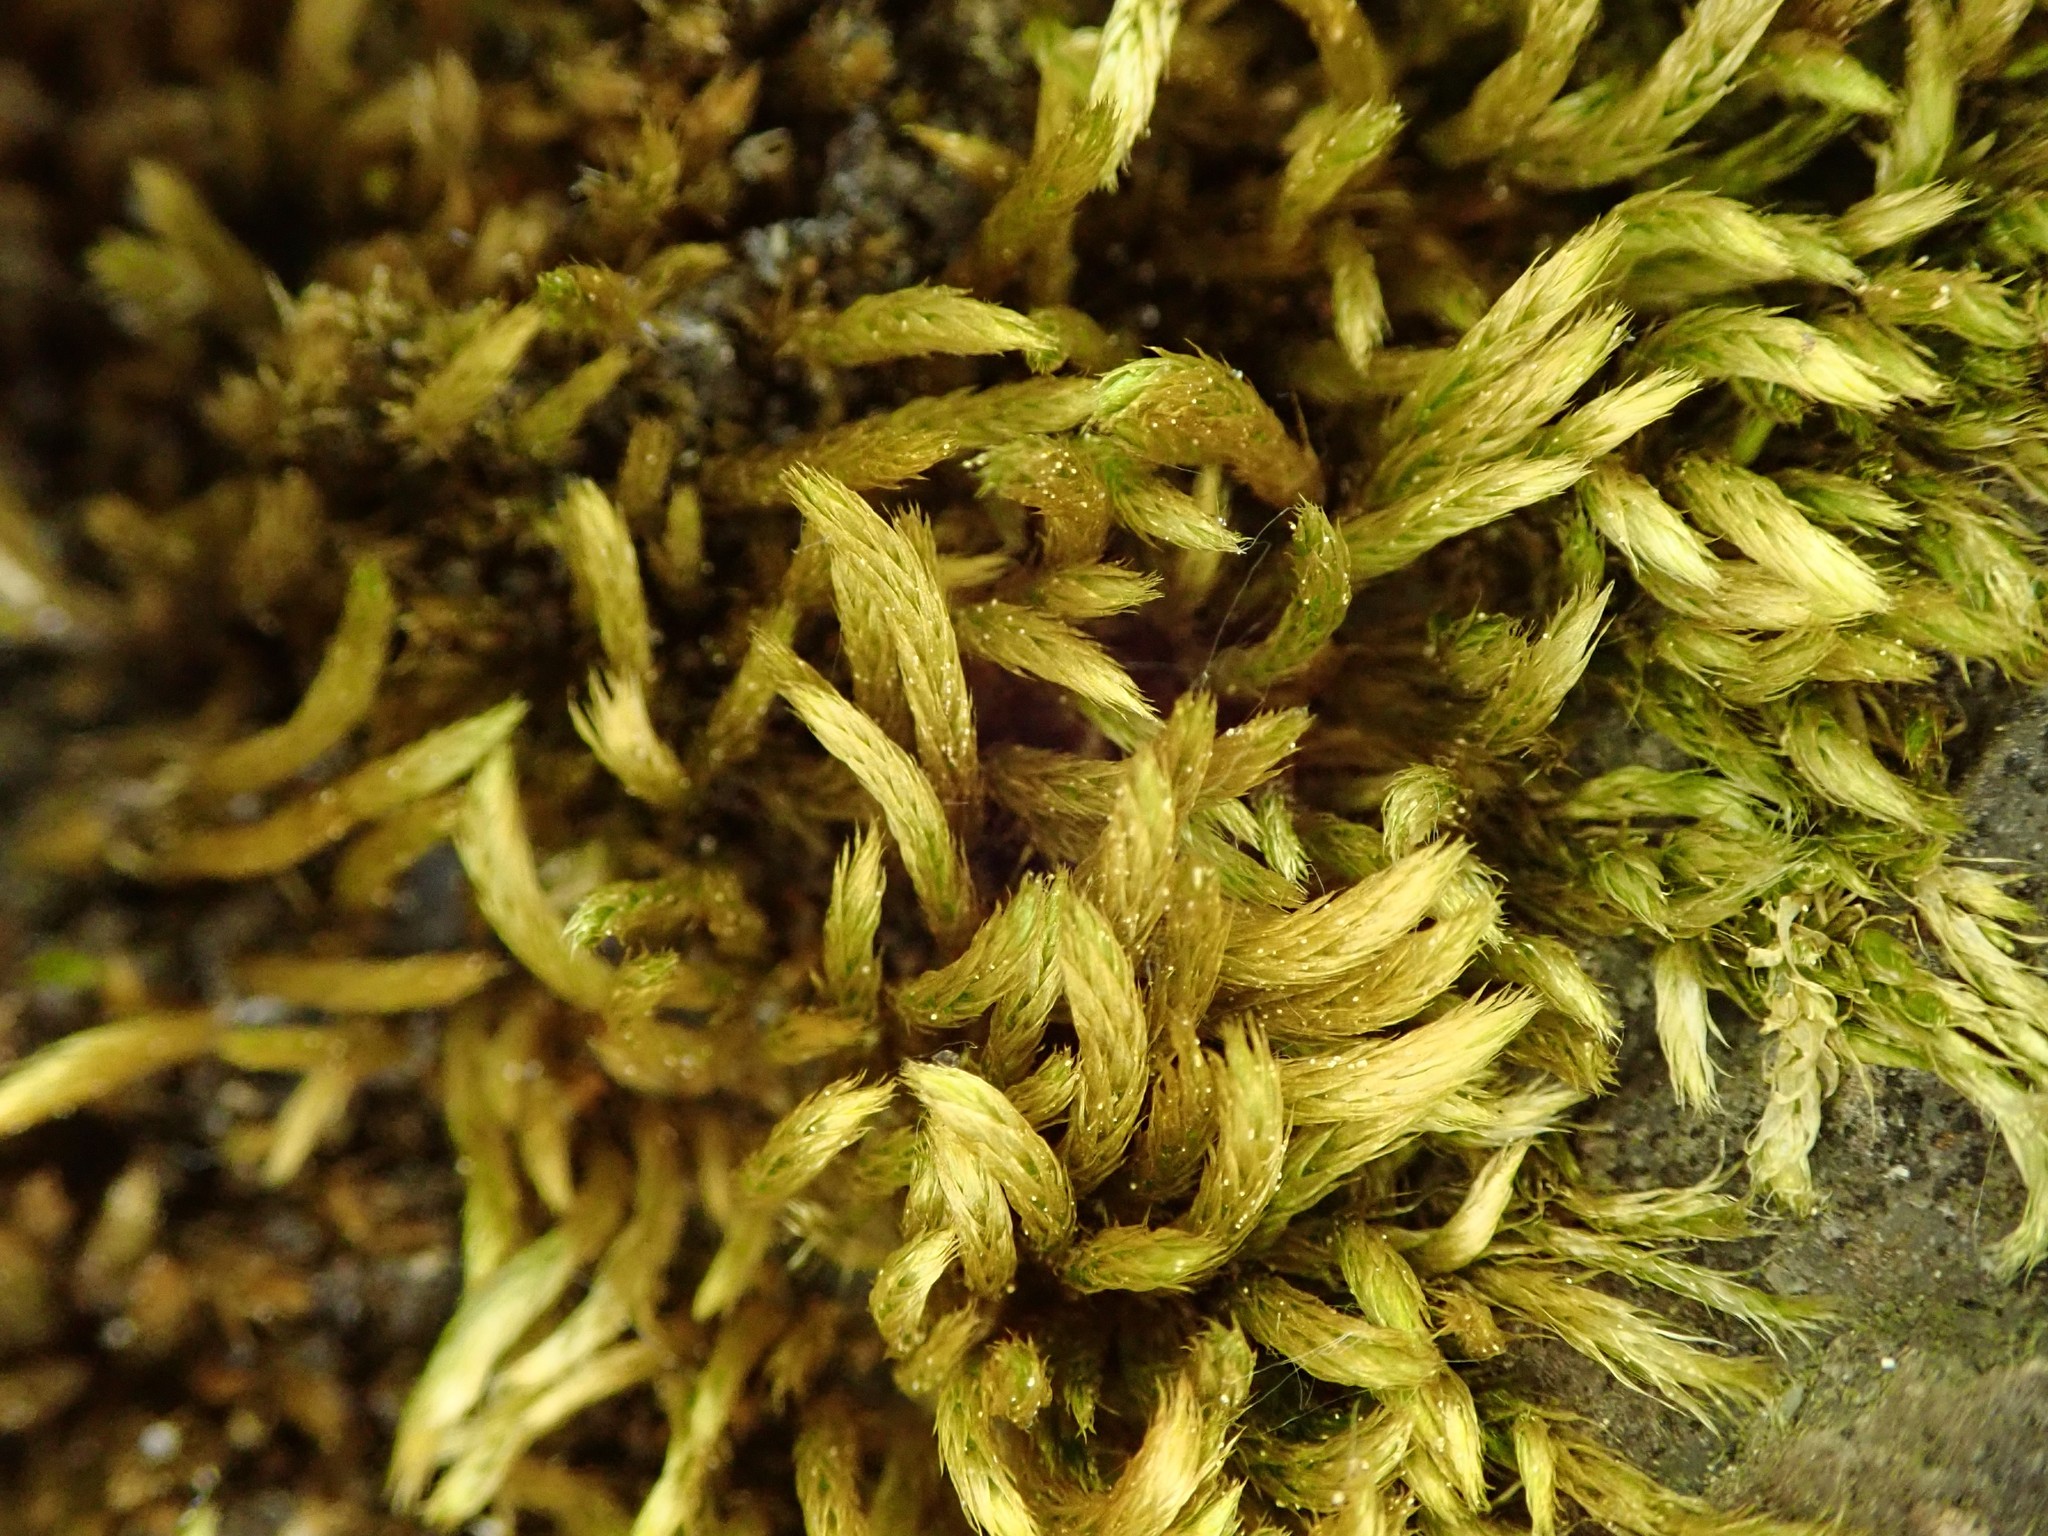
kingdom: Plantae
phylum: Bryophyta
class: Bryopsida
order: Hypnales
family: Brachytheciaceae
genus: Homalothecium
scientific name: Homalothecium lutescens
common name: Yellow feather-moss
